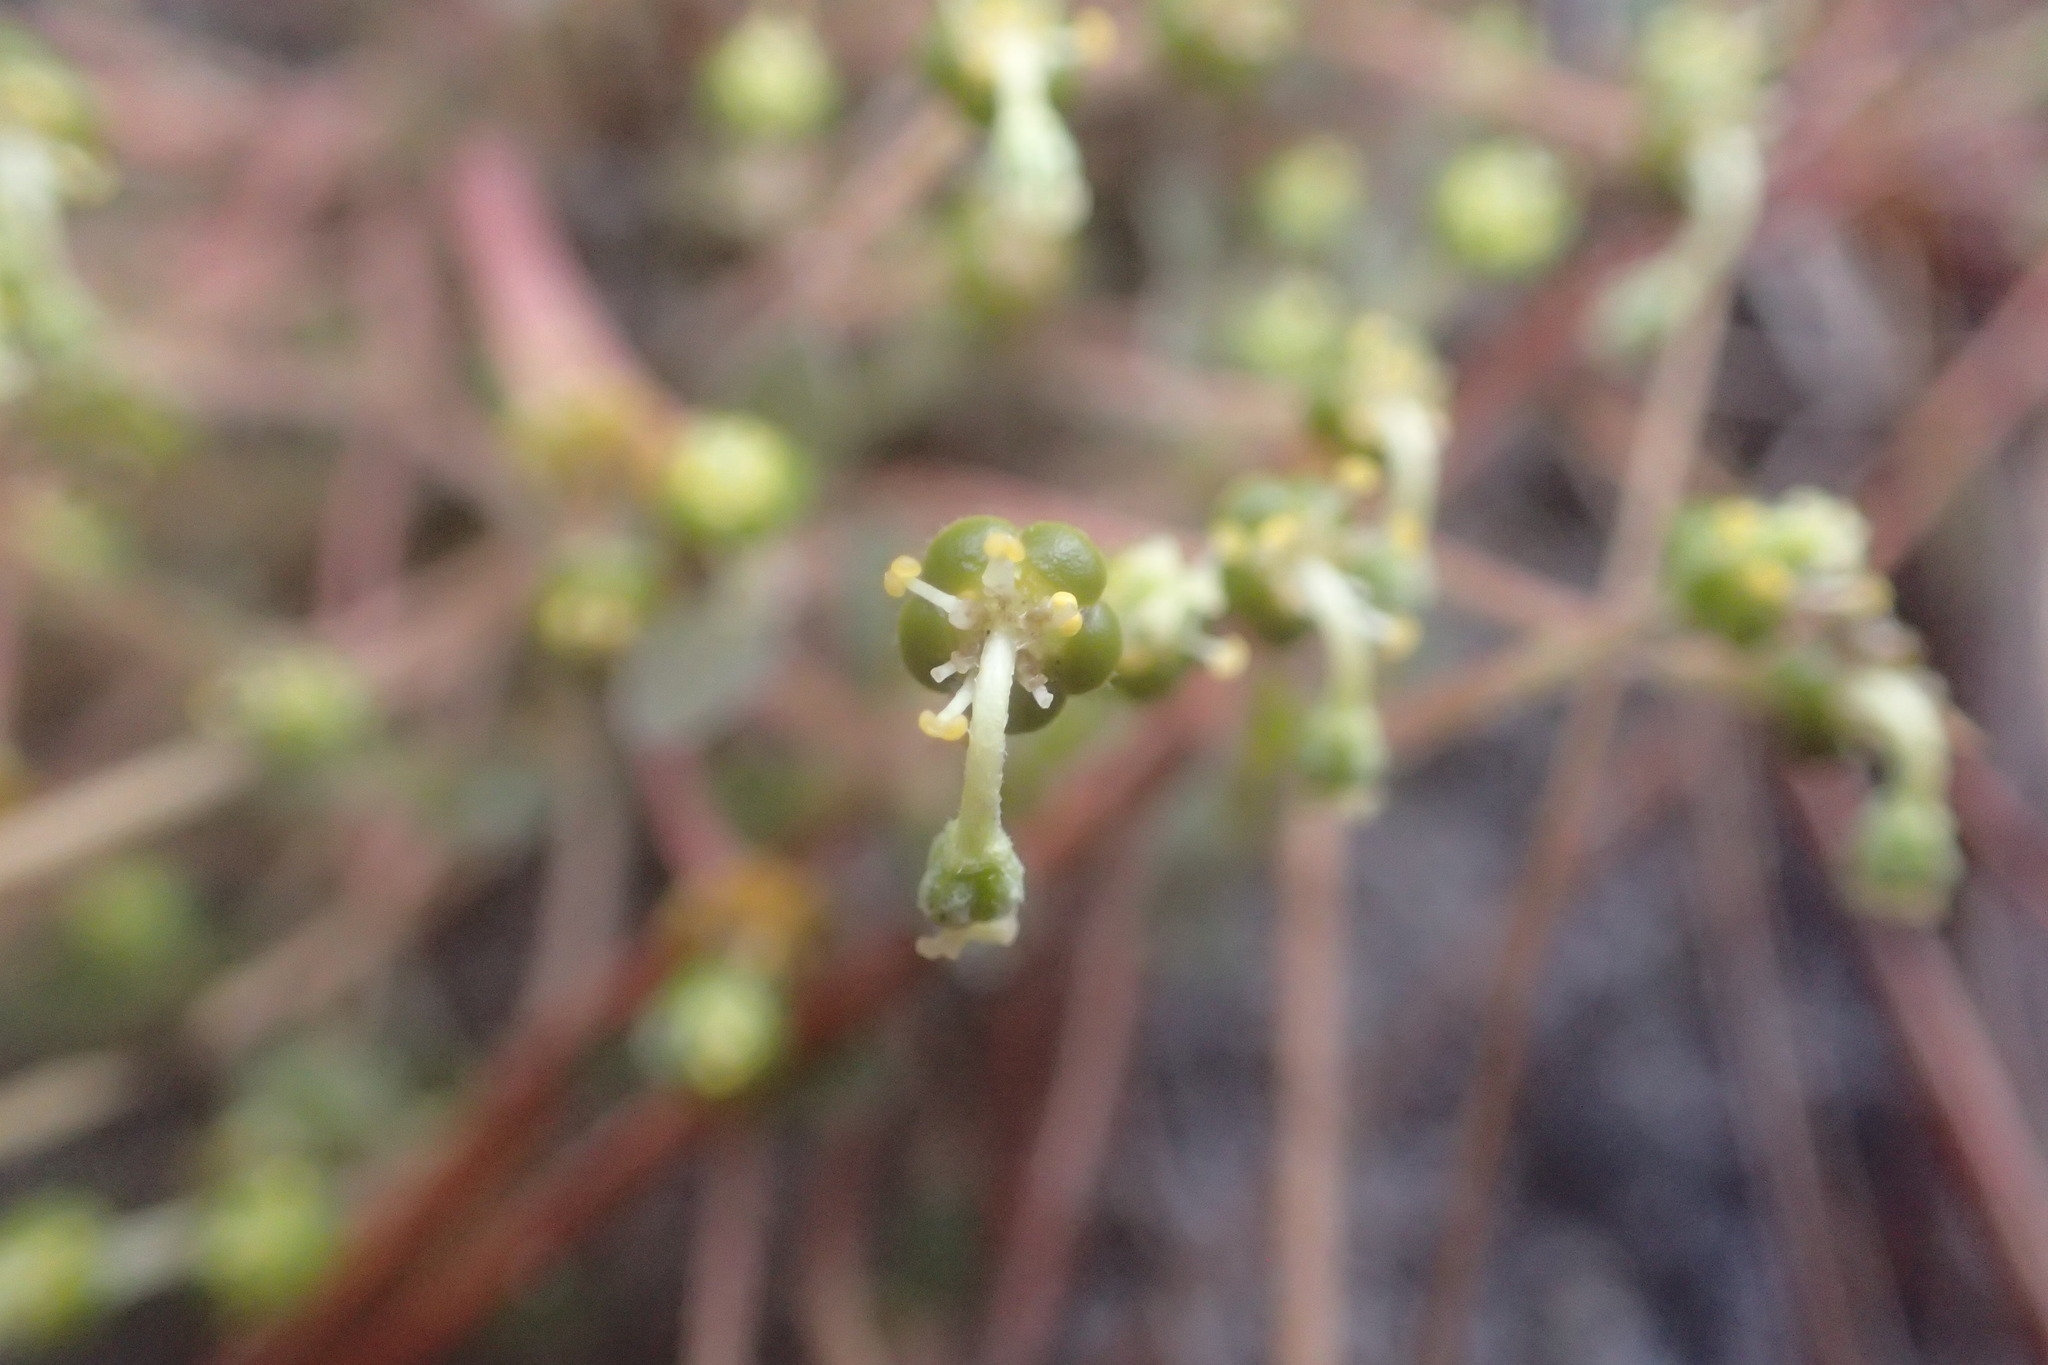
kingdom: Plantae
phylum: Tracheophyta
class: Magnoliopsida
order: Malpighiales
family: Euphorbiaceae
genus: Euphorbia
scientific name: Euphorbia ipecacuanhae
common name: Carolina ipecac
